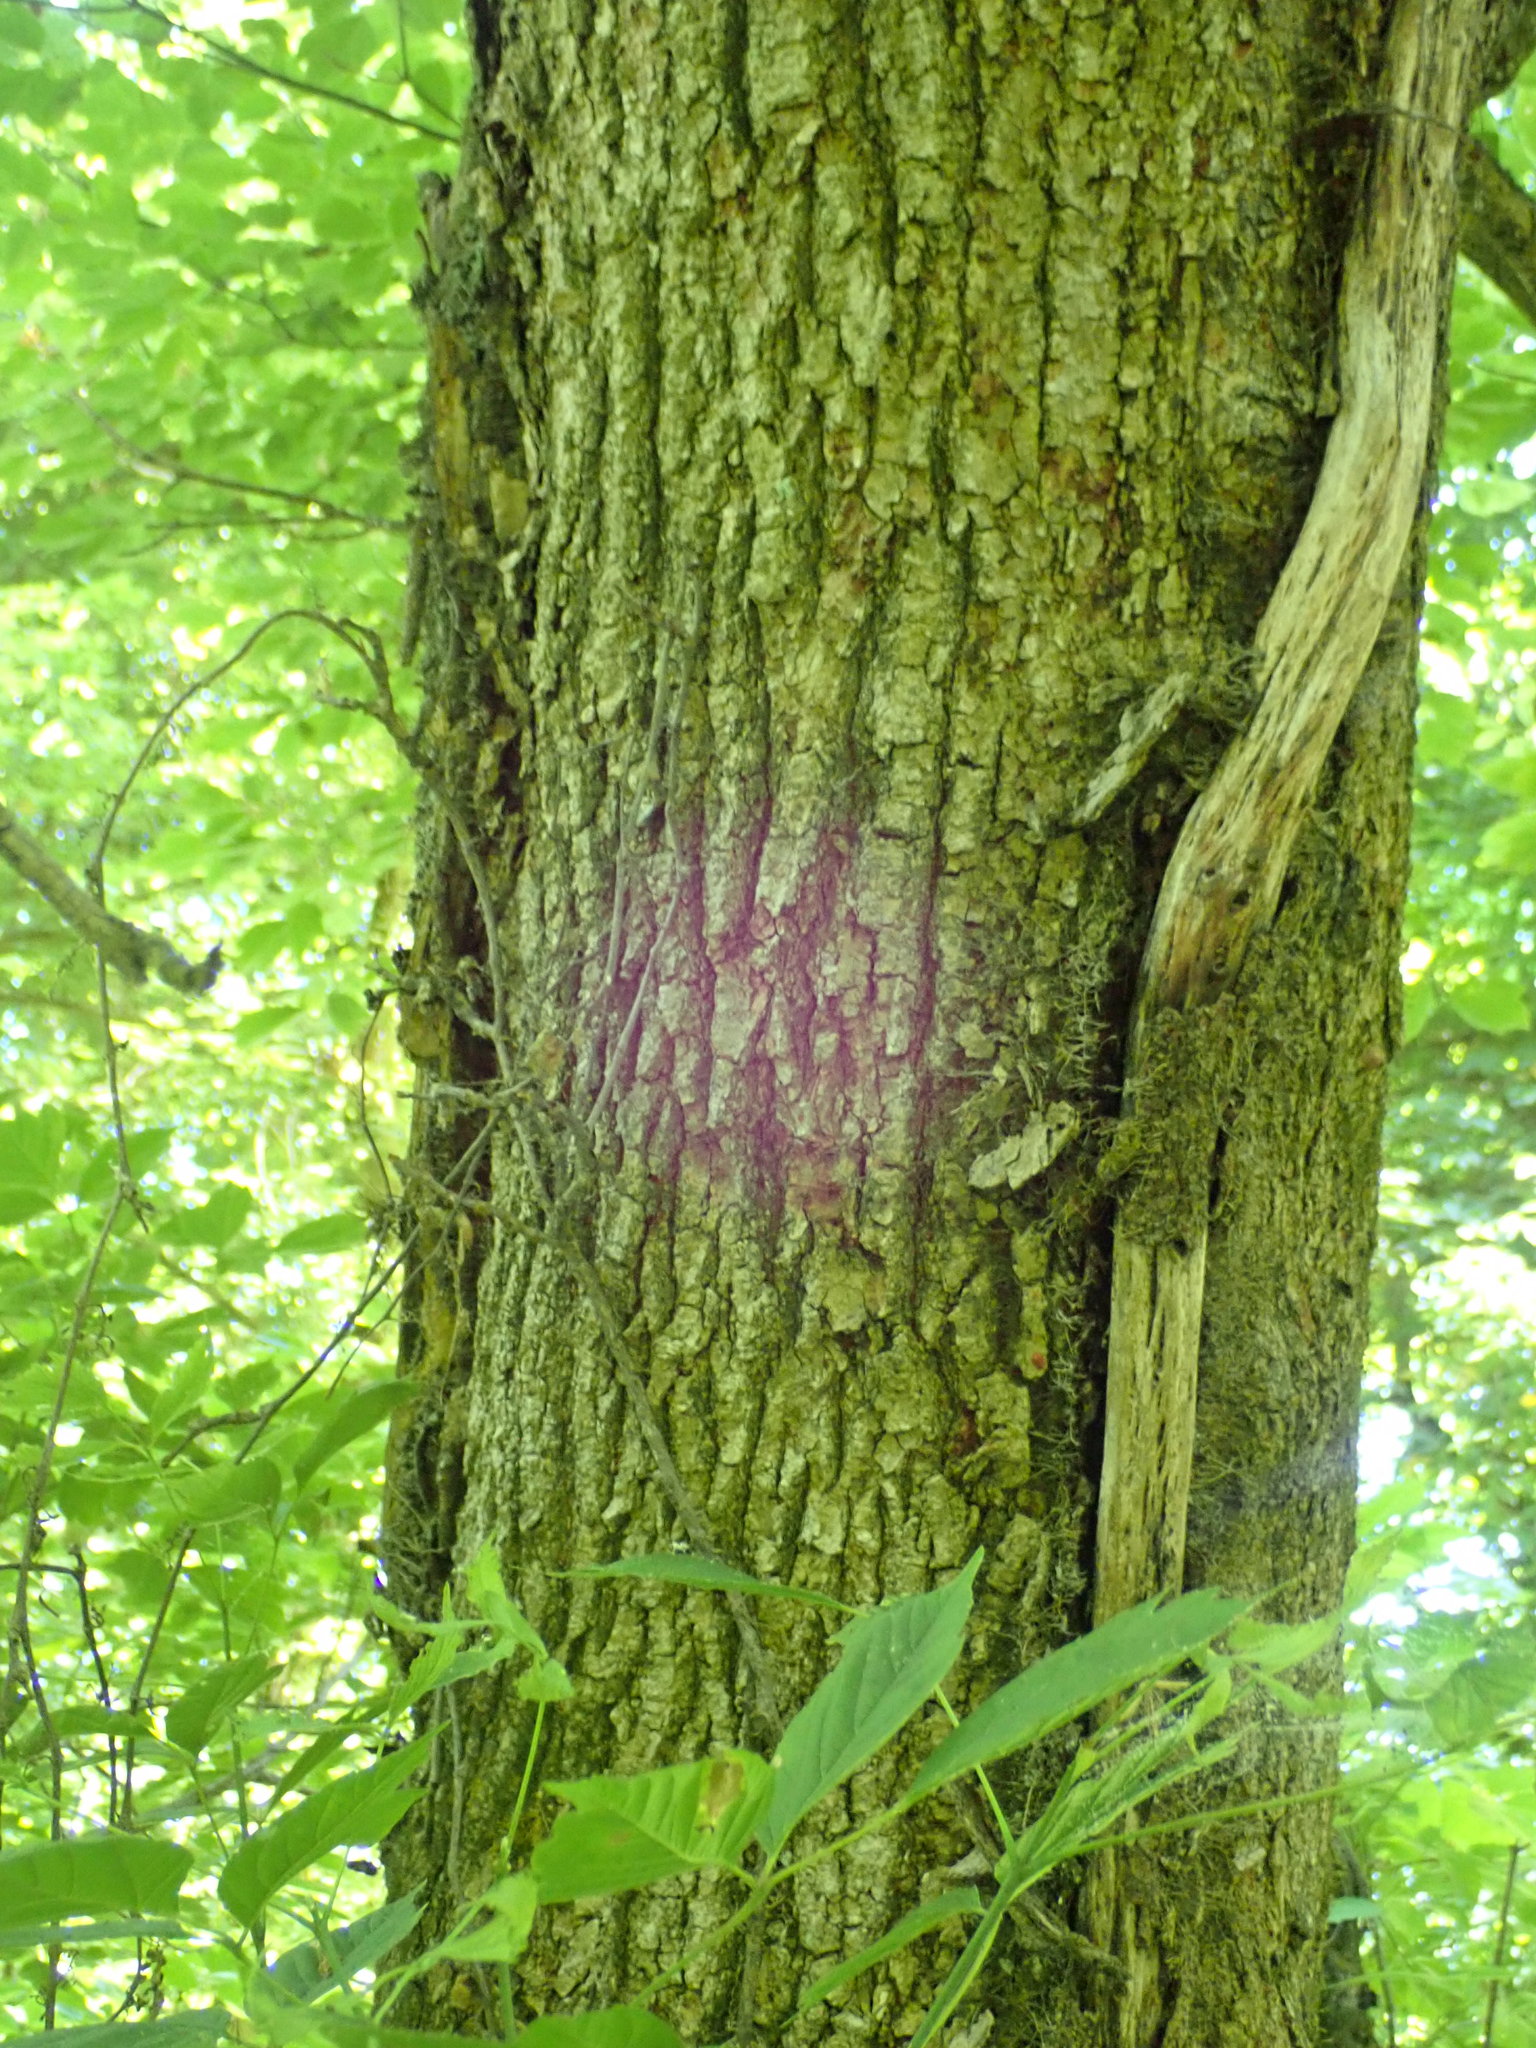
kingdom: Plantae
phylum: Tracheophyta
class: Magnoliopsida
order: Sapindales
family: Sapindaceae
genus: Acer
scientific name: Acer negundo
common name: Ashleaf maple
